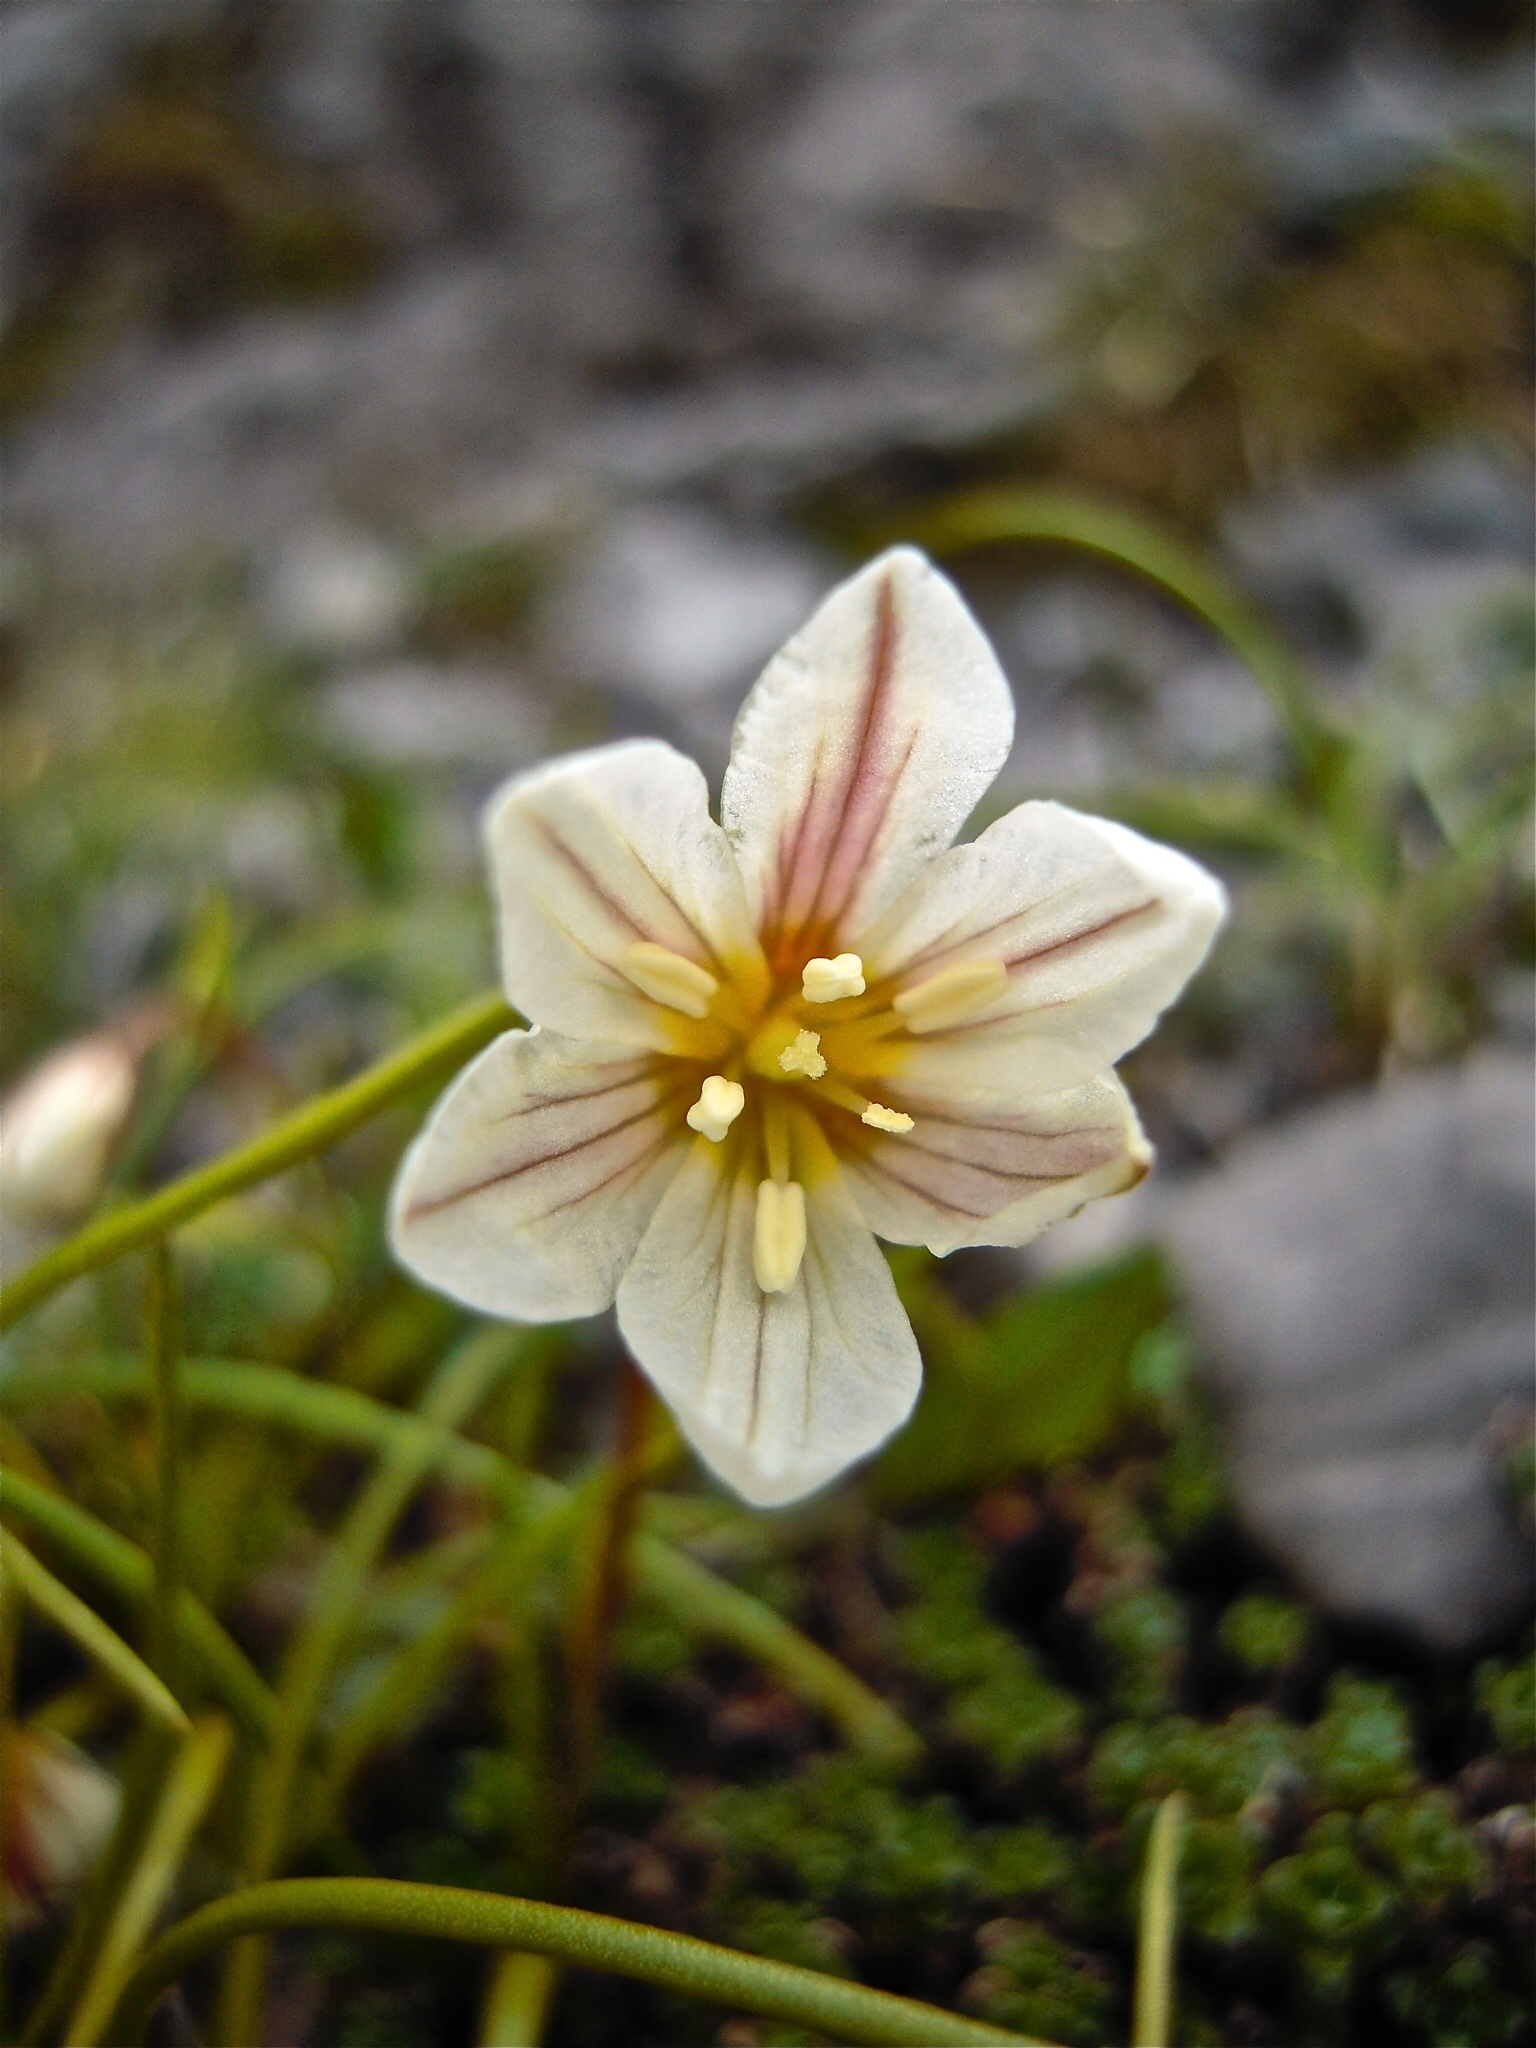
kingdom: Plantae
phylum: Tracheophyta
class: Liliopsida
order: Liliales
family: Liliaceae
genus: Gagea
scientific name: Gagea serotina
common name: Snowdon lily
